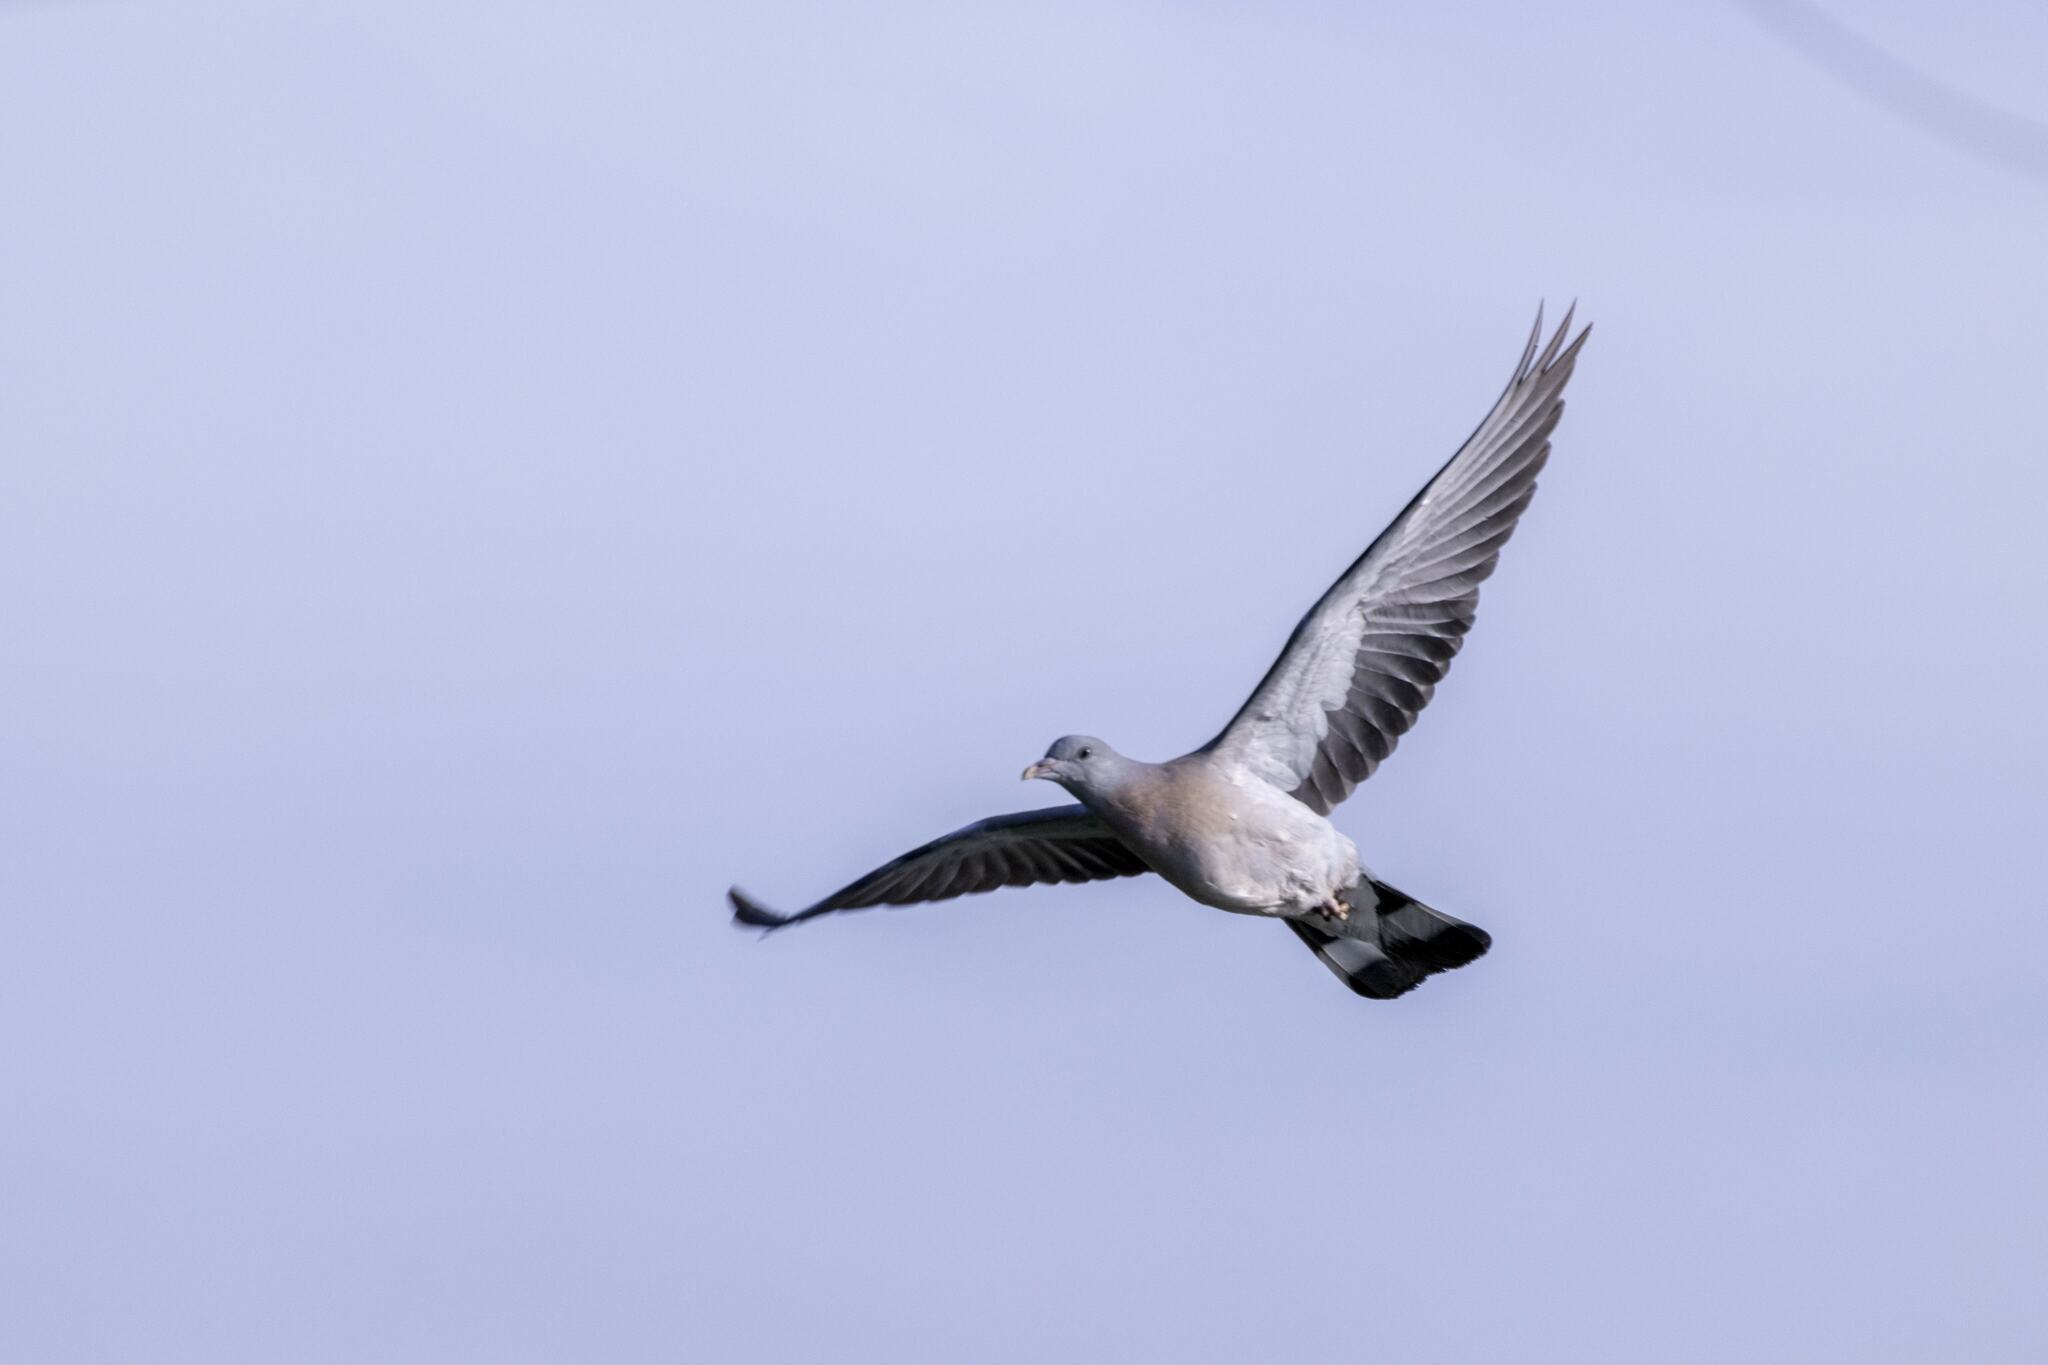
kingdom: Animalia
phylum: Chordata
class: Aves
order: Columbiformes
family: Columbidae
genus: Columba
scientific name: Columba palumbus
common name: Common wood pigeon
